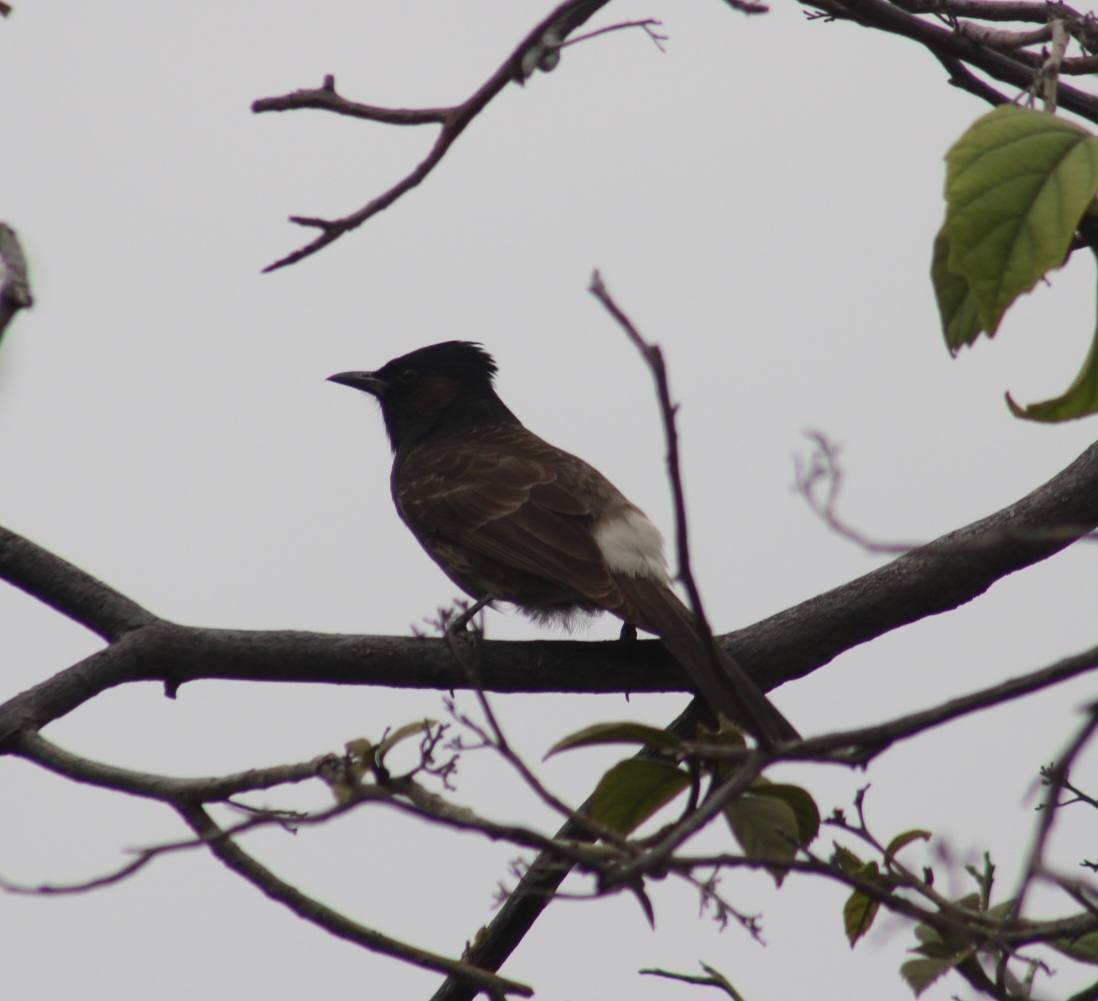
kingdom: Animalia
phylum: Chordata
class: Aves
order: Passeriformes
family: Pycnonotidae
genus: Pycnonotus
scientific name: Pycnonotus cafer
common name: Red-vented bulbul
